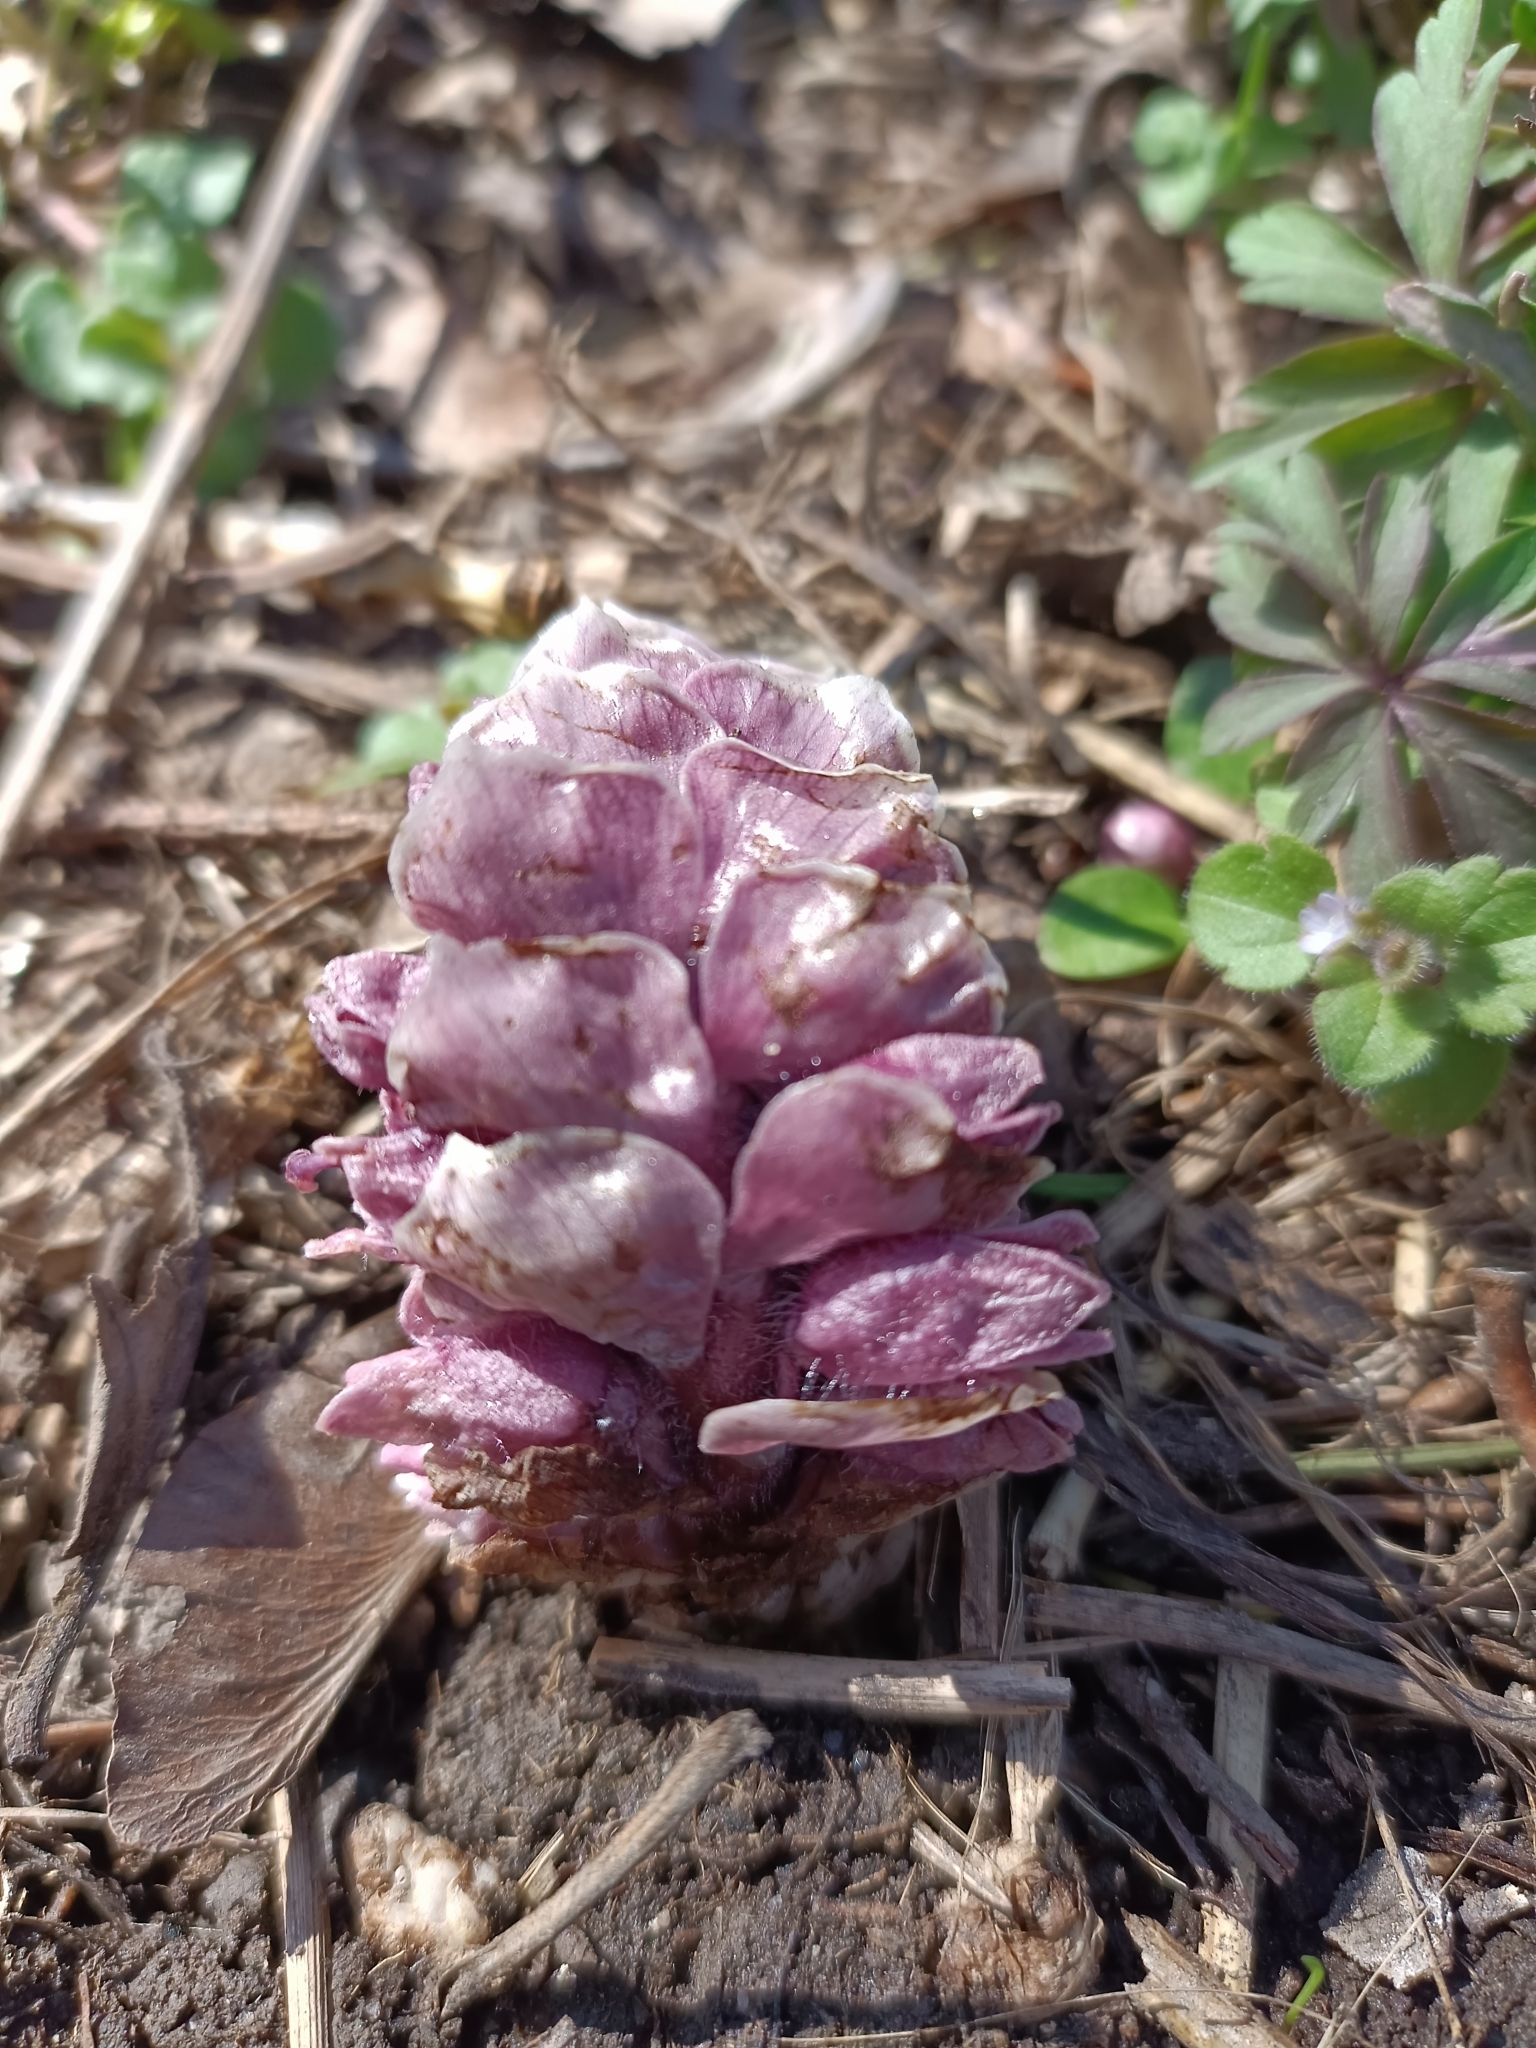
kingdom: Plantae
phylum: Tracheophyta
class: Magnoliopsida
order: Lamiales
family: Orobanchaceae
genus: Lathraea
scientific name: Lathraea squamaria
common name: Toothwort
